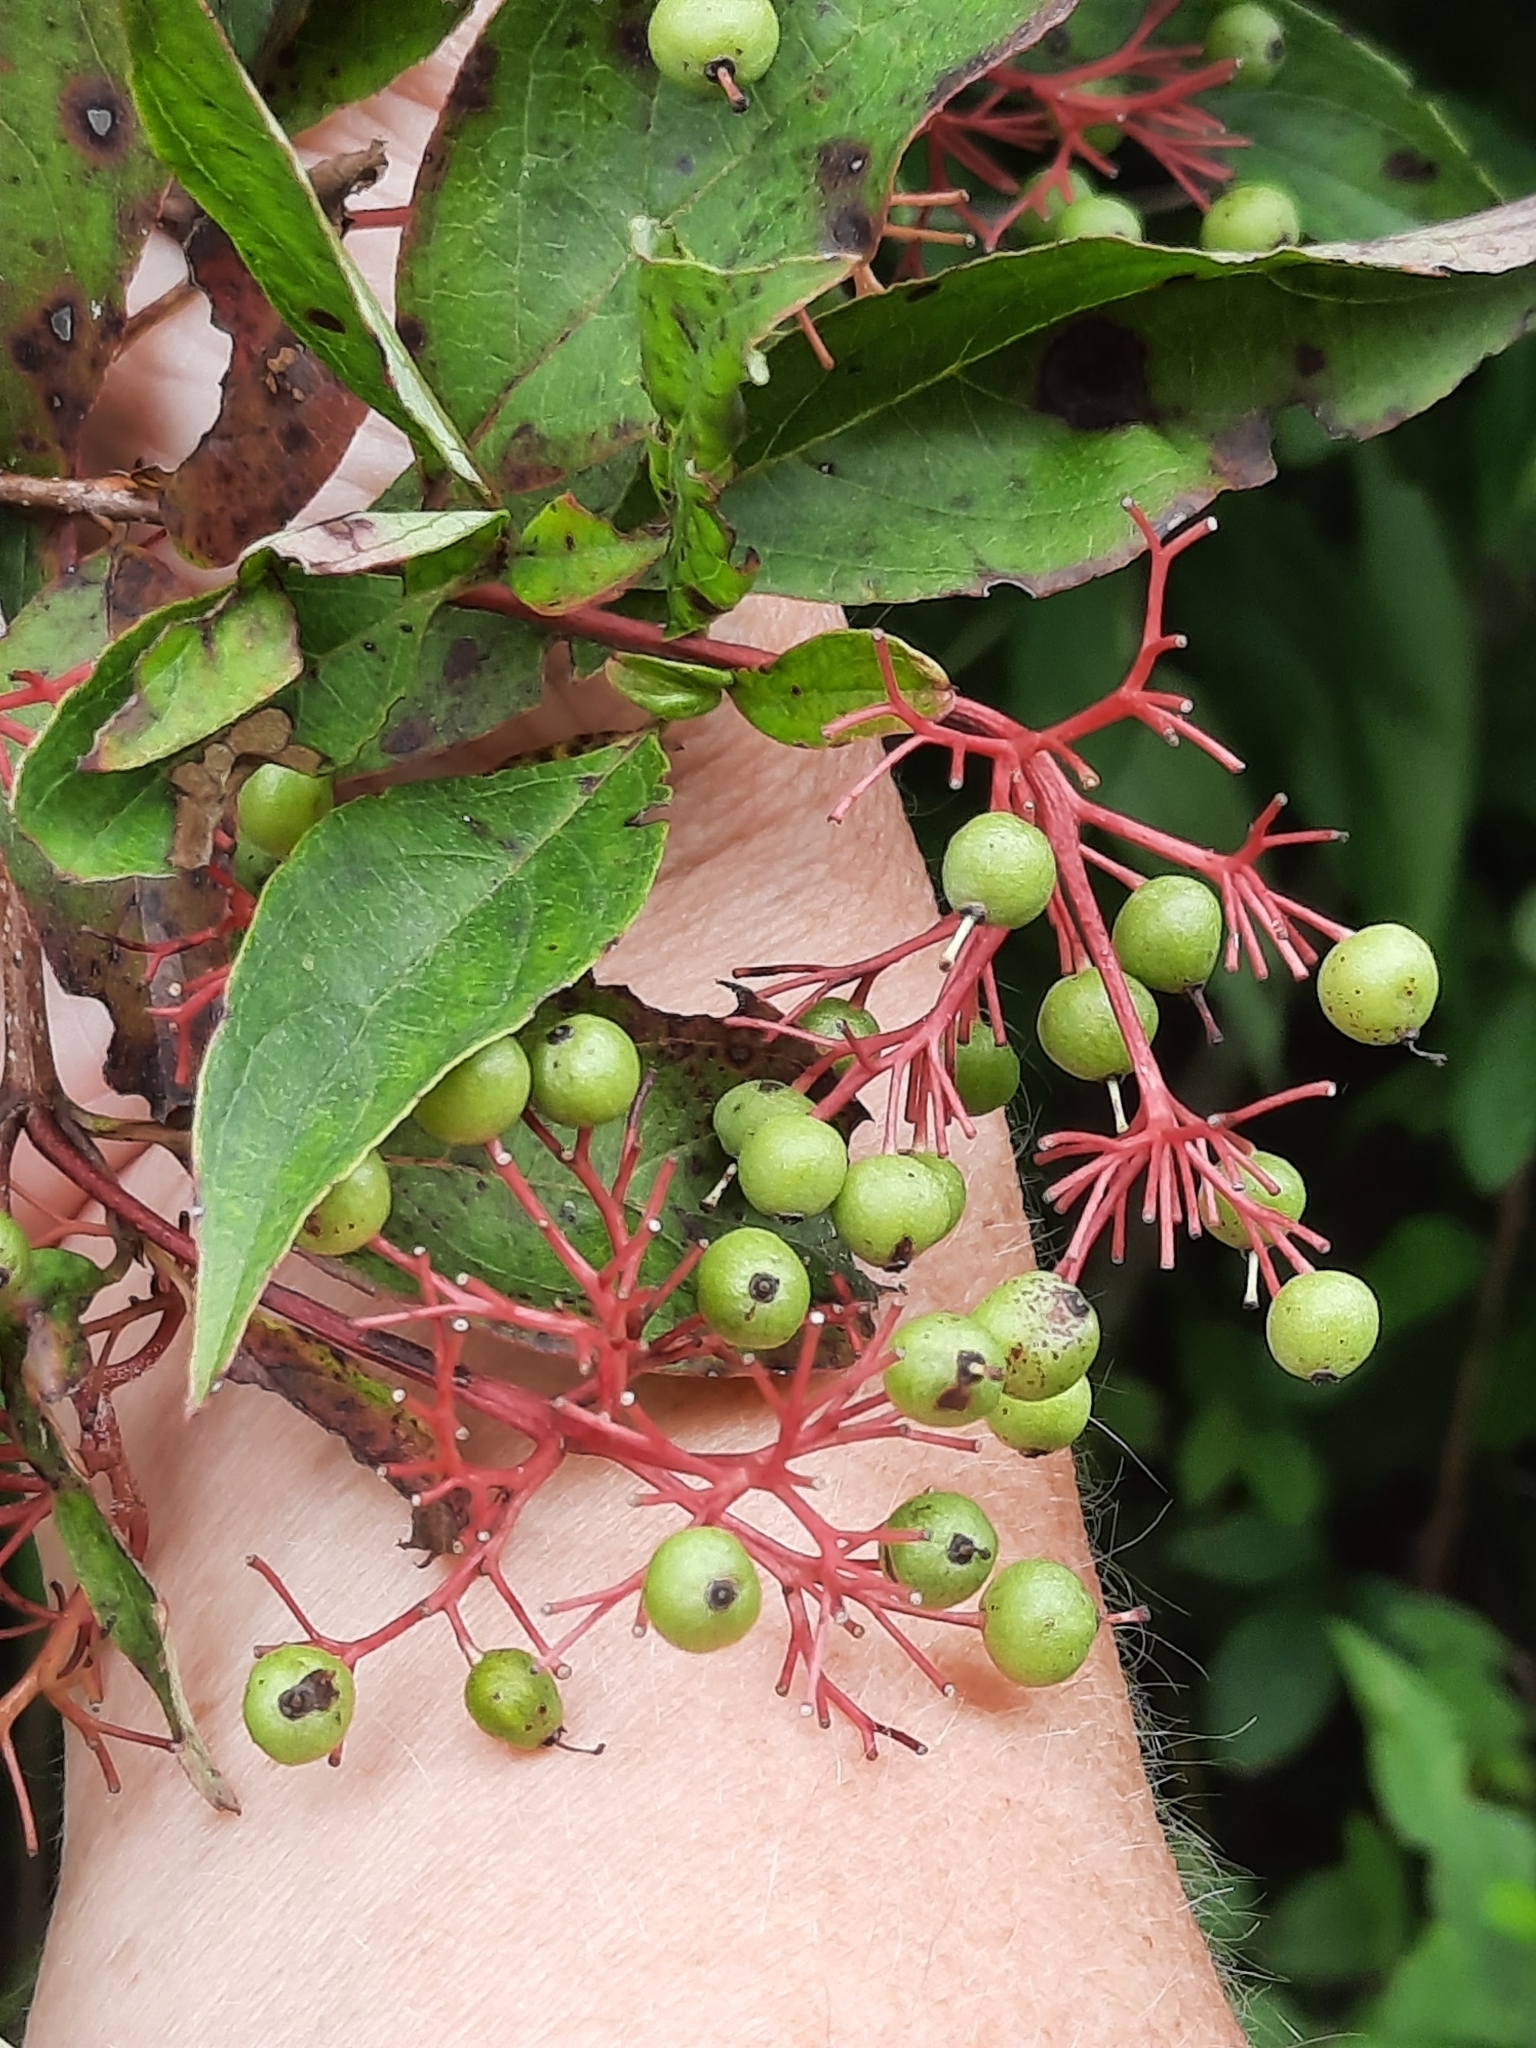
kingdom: Plantae
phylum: Tracheophyta
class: Magnoliopsida
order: Cornales
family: Cornaceae
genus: Cornus
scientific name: Cornus racemosa
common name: Panicled dogwood
